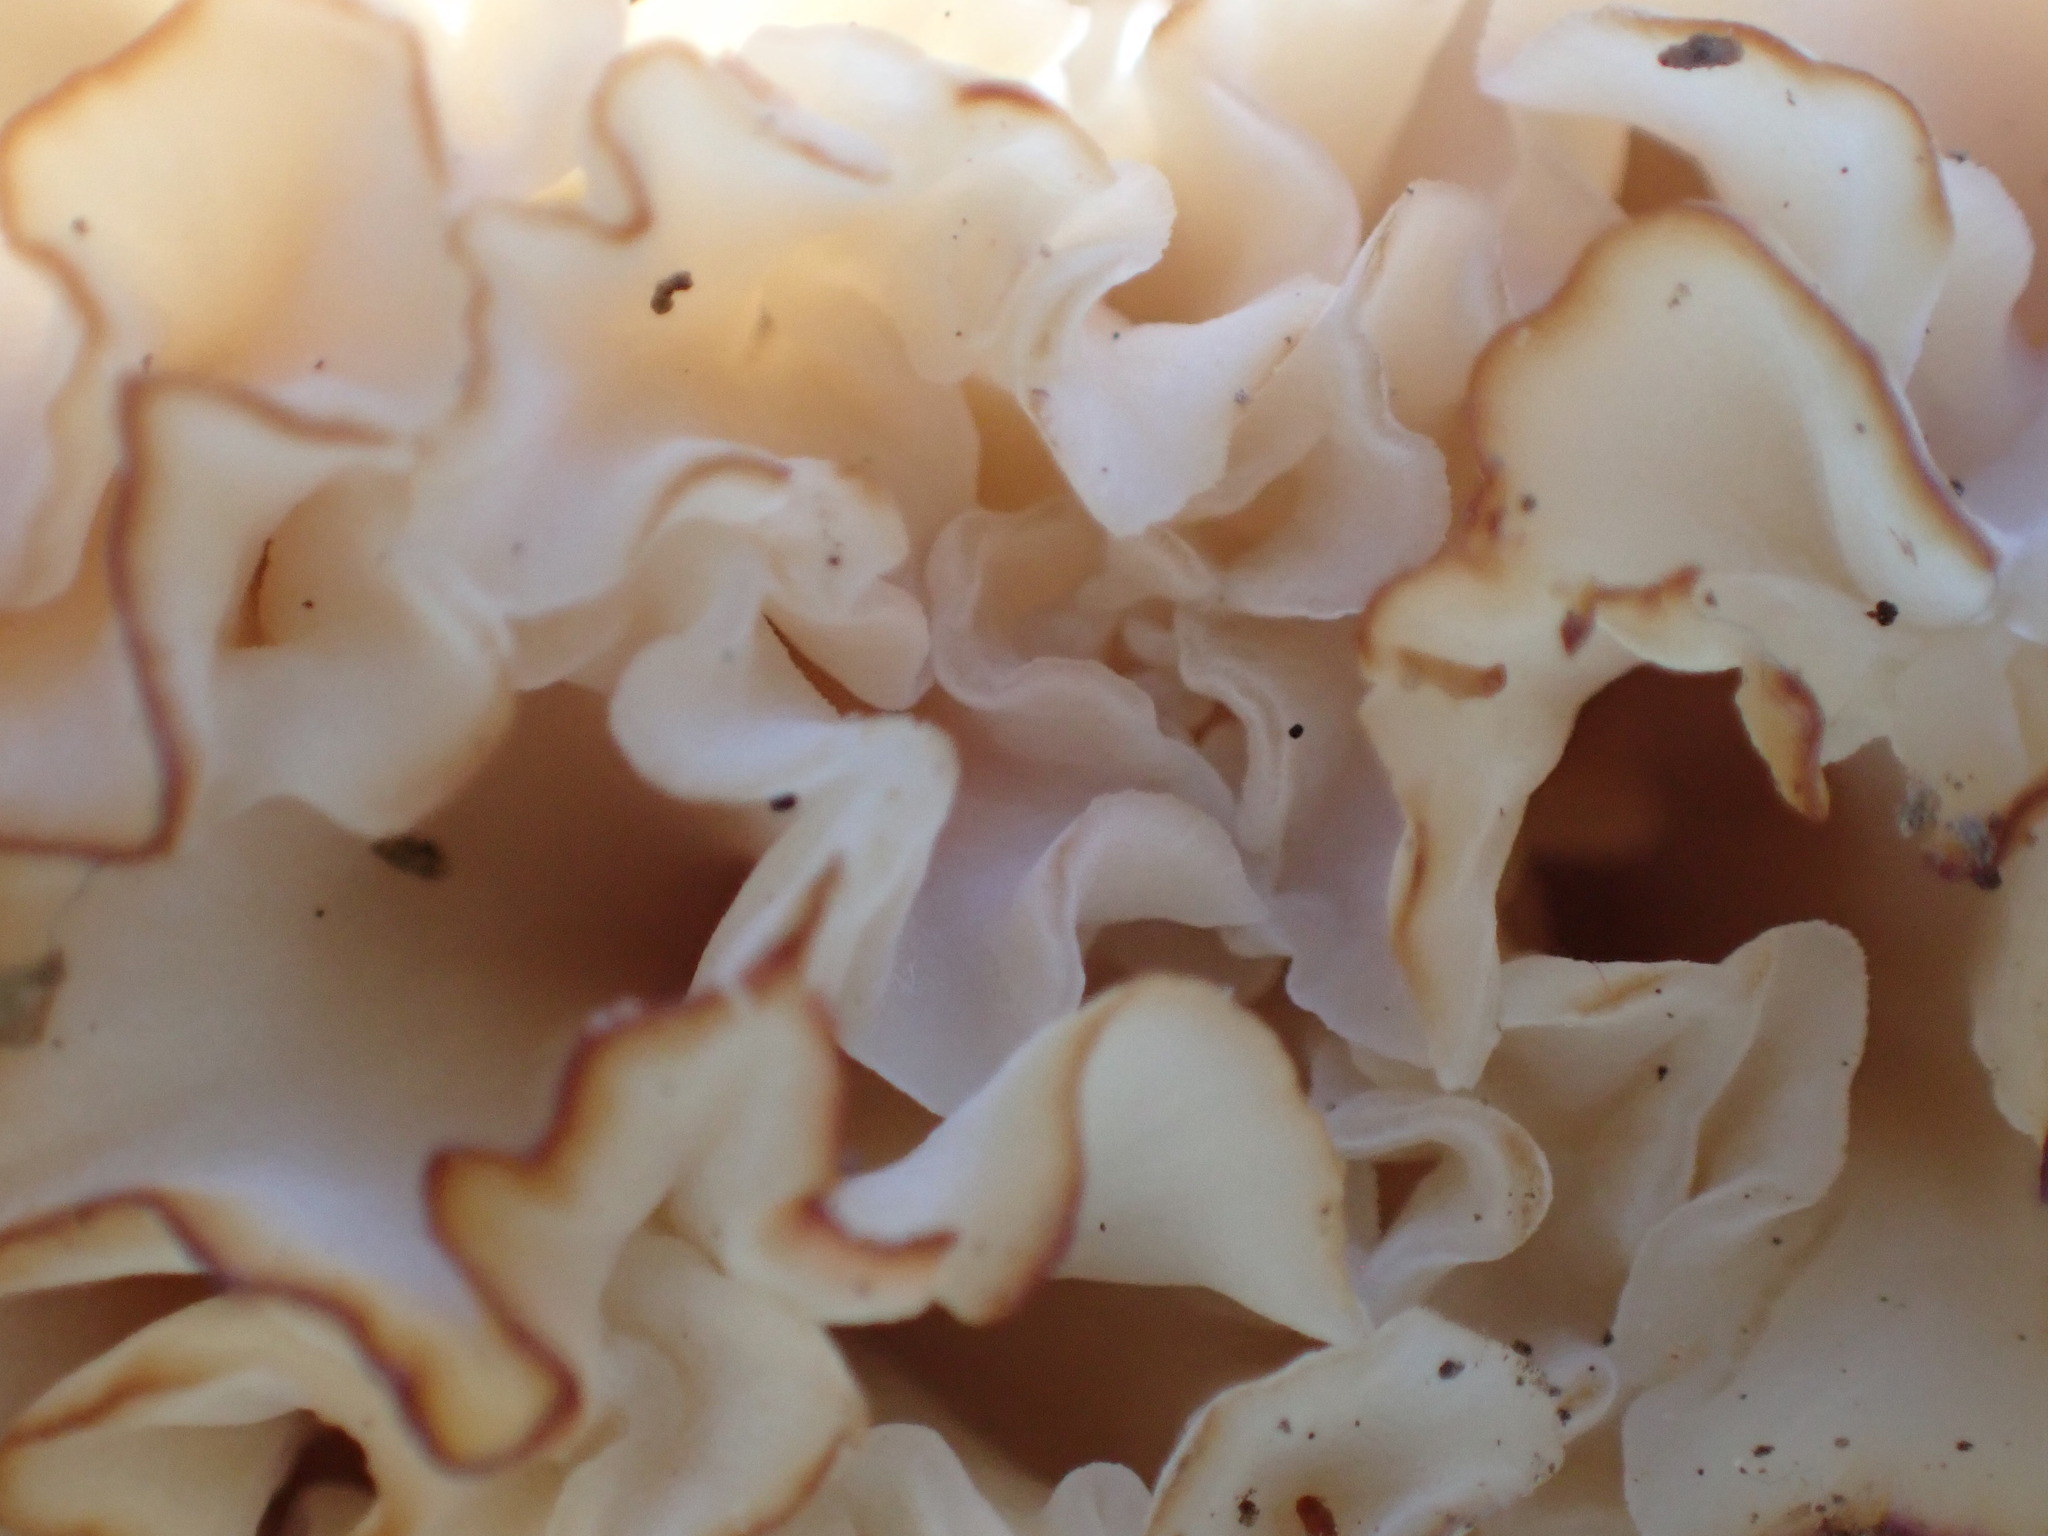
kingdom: Fungi
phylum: Basidiomycota
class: Agaricomycetes
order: Polyporales
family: Sparassidaceae
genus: Sparassis
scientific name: Sparassis crispa
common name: Brain fungus
